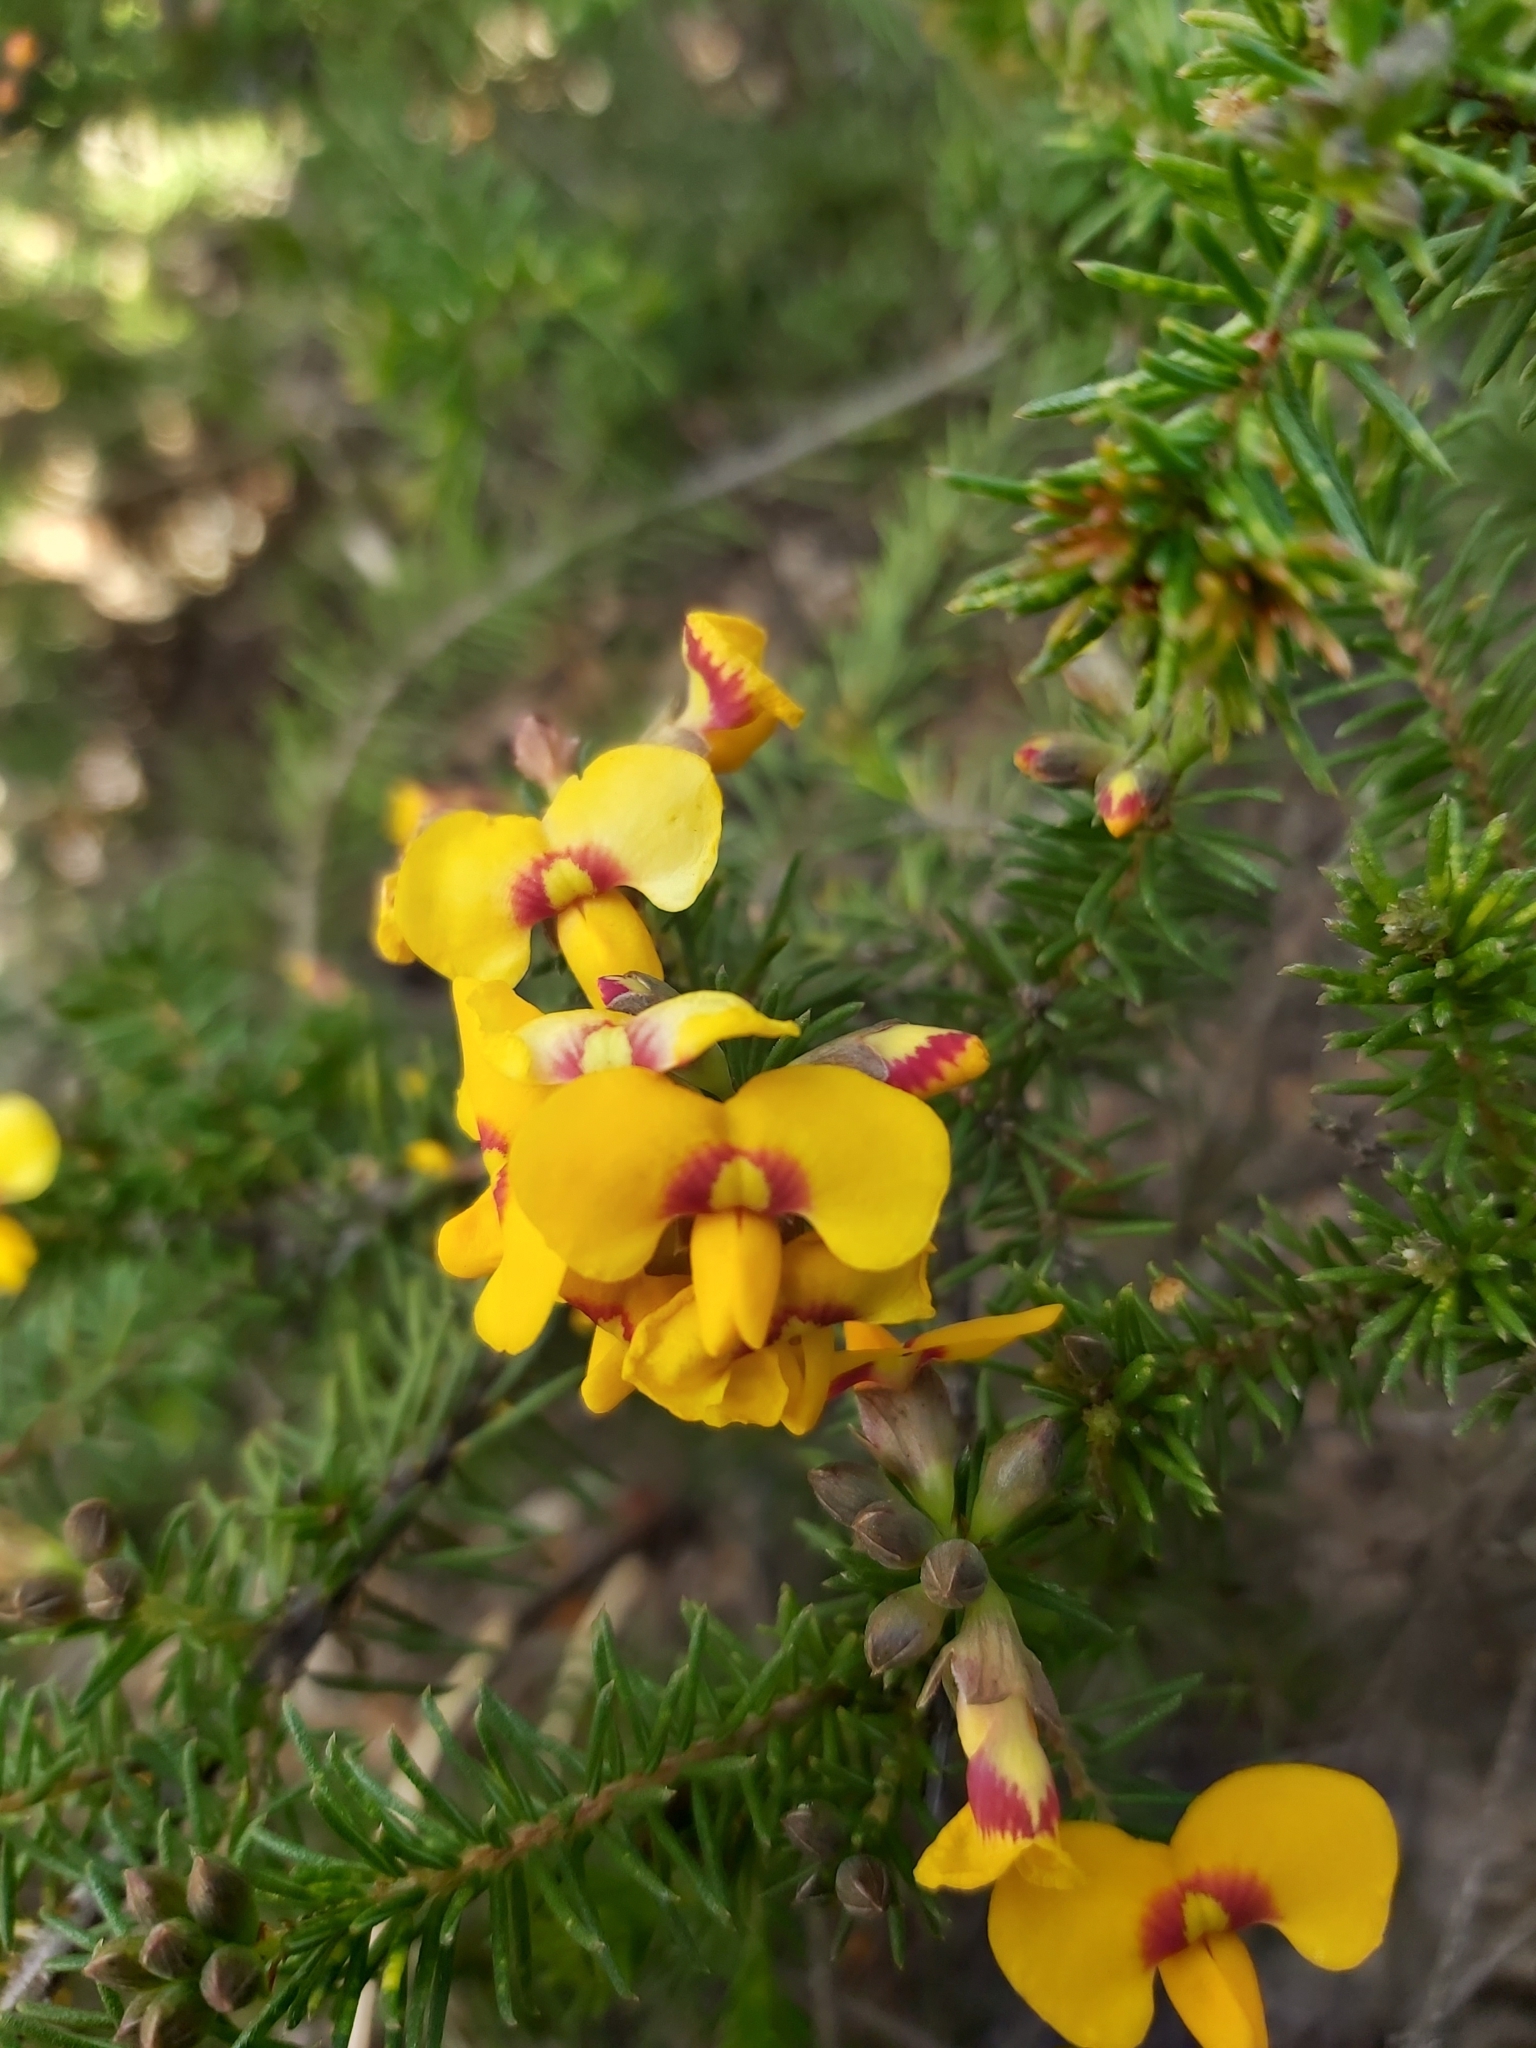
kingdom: Plantae
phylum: Tracheophyta
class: Magnoliopsida
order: Fabales
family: Fabaceae
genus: Dillwynia
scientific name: Dillwynia retorta
